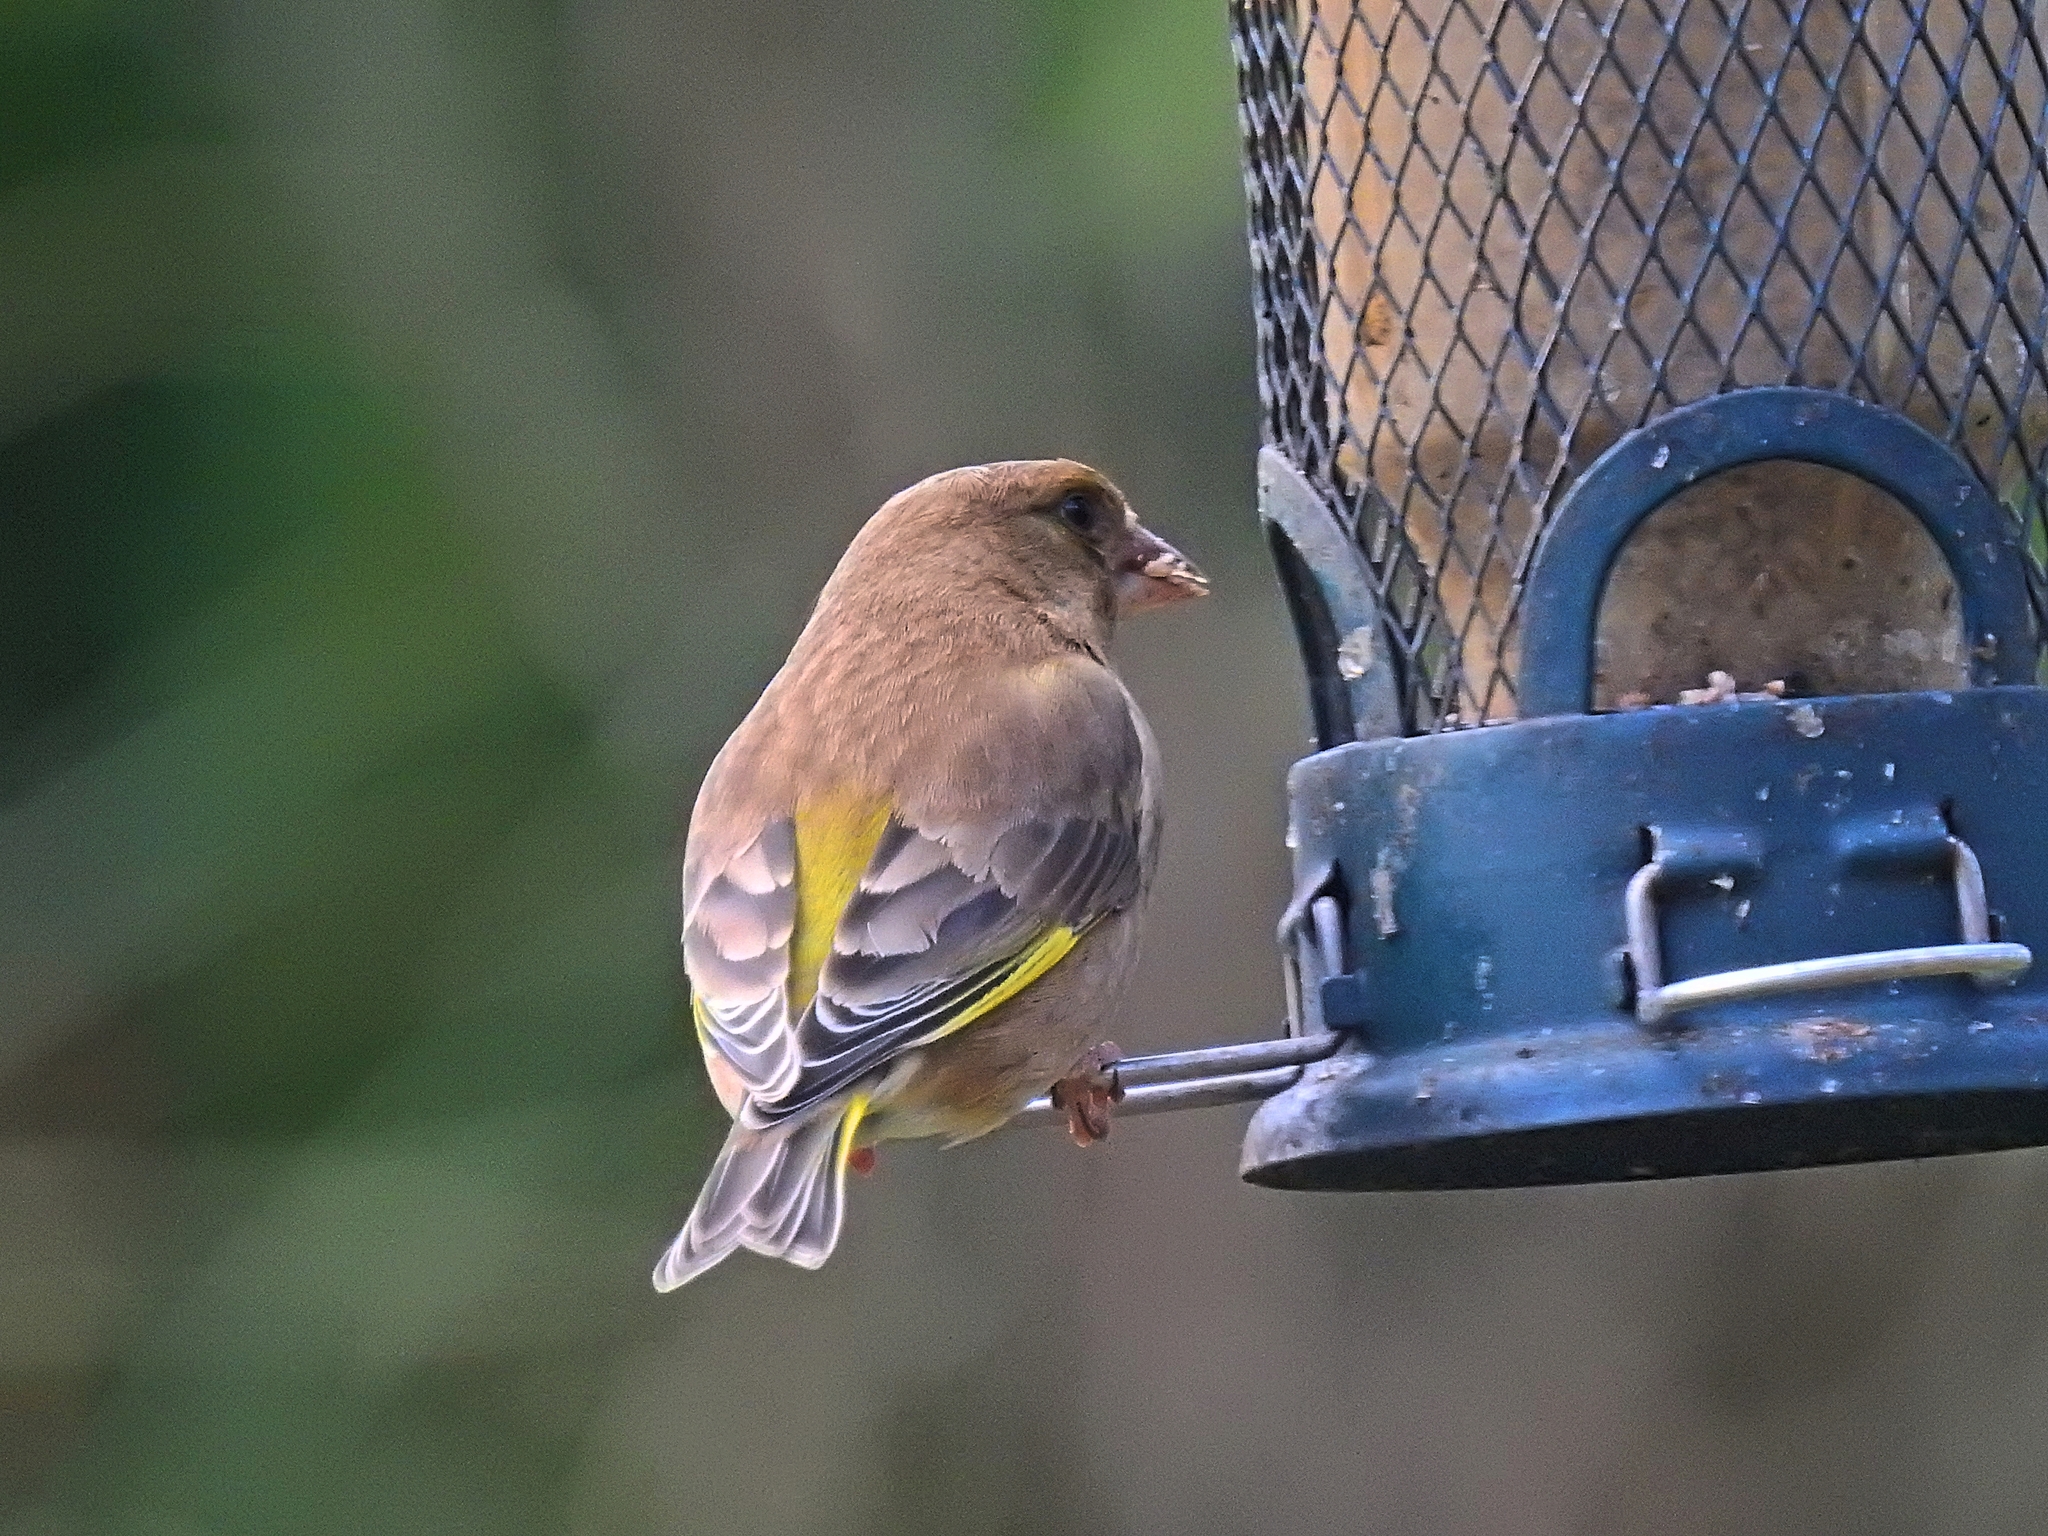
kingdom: Plantae
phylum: Tracheophyta
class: Liliopsida
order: Poales
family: Poaceae
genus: Chloris
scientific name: Chloris chloris
